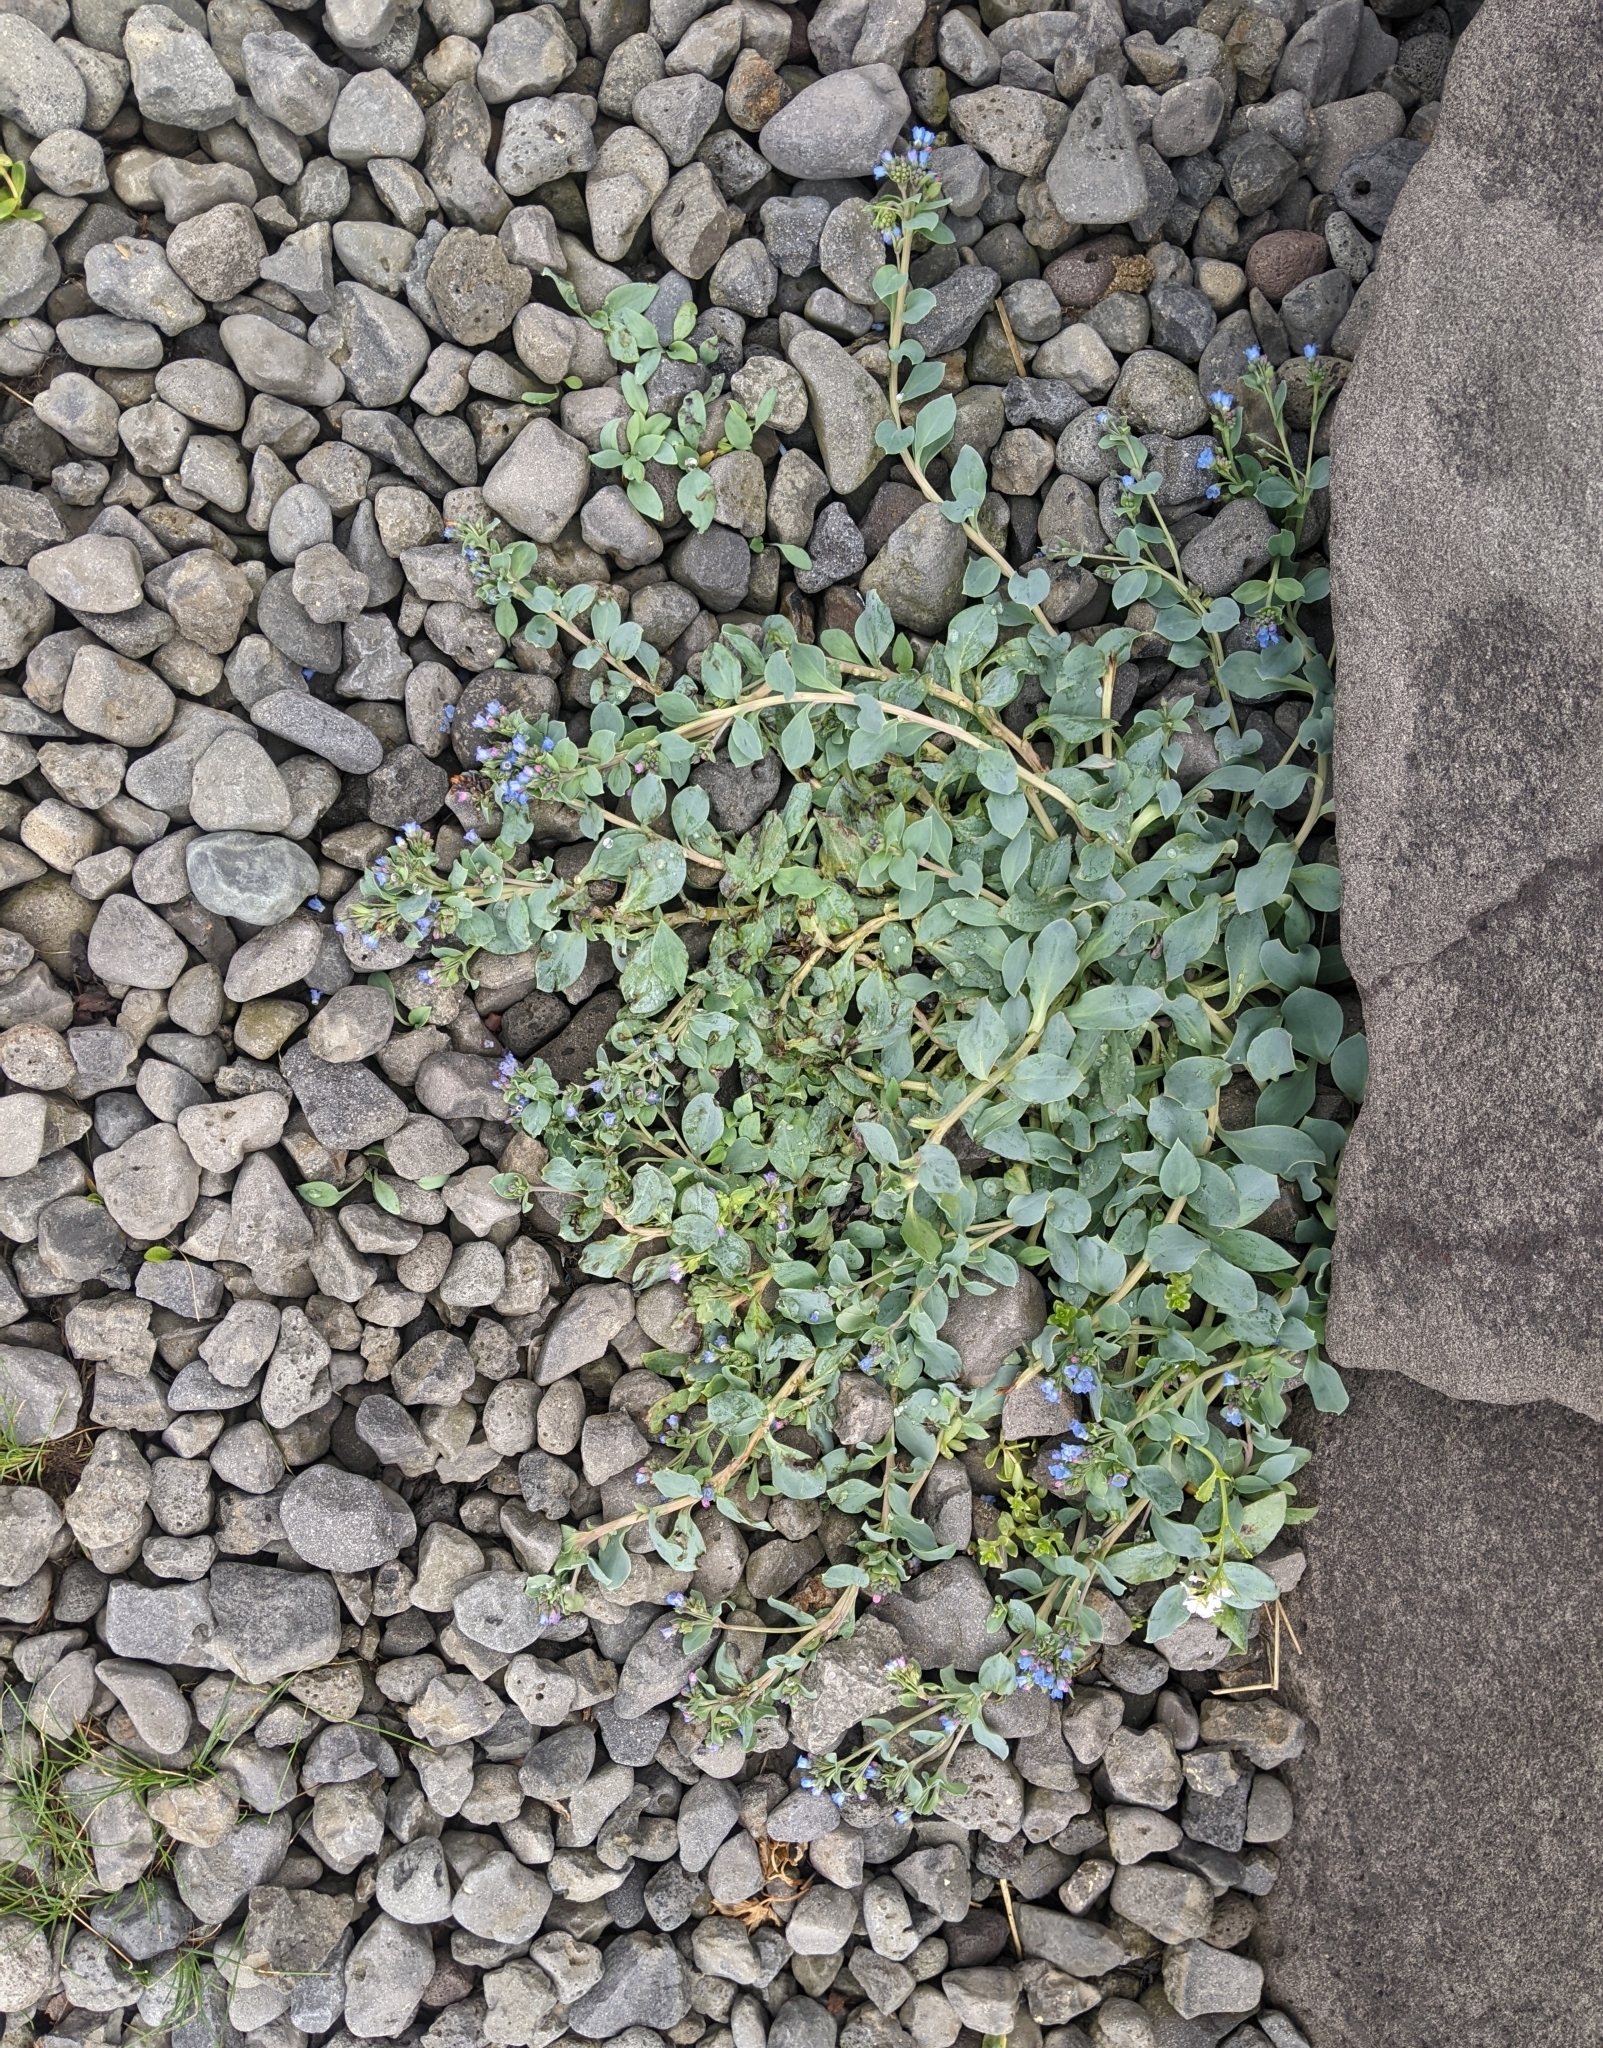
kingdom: Plantae
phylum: Tracheophyta
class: Magnoliopsida
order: Boraginales
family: Boraginaceae
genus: Mertensia
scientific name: Mertensia maritima
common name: Oysterplant
